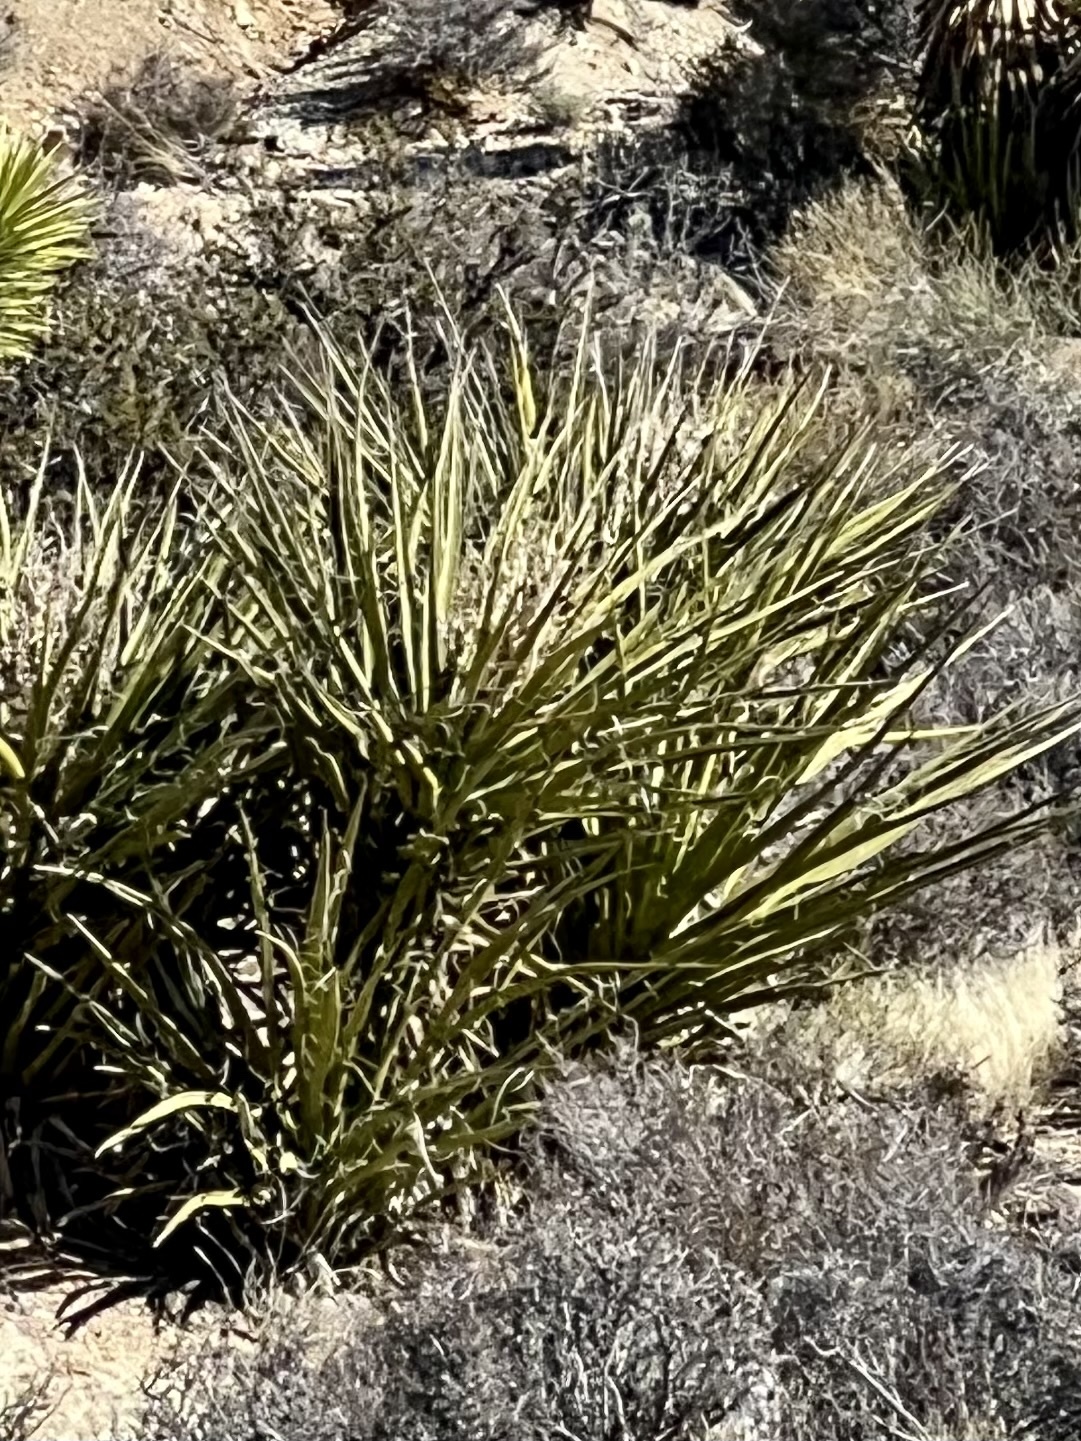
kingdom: Plantae
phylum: Tracheophyta
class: Liliopsida
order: Asparagales
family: Asparagaceae
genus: Yucca
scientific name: Yucca baccata
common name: Banana yucca
